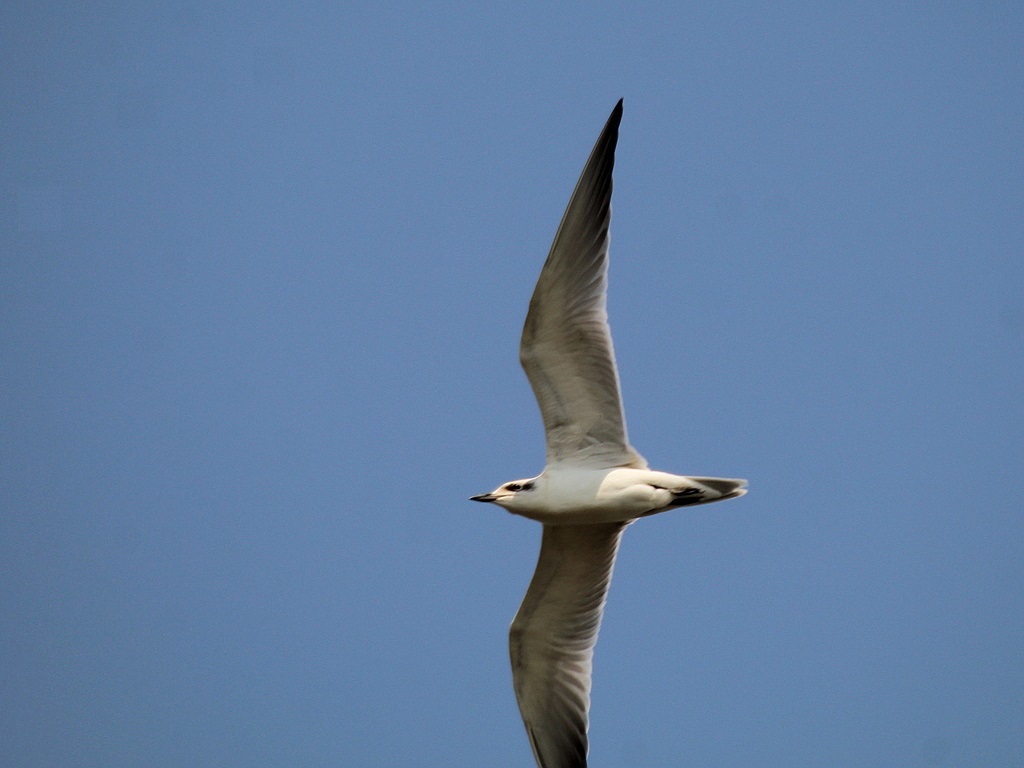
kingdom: Animalia
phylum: Chordata
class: Aves
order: Charadriiformes
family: Laridae
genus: Gelochelidon
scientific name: Gelochelidon nilotica
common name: Gull-billed tern
